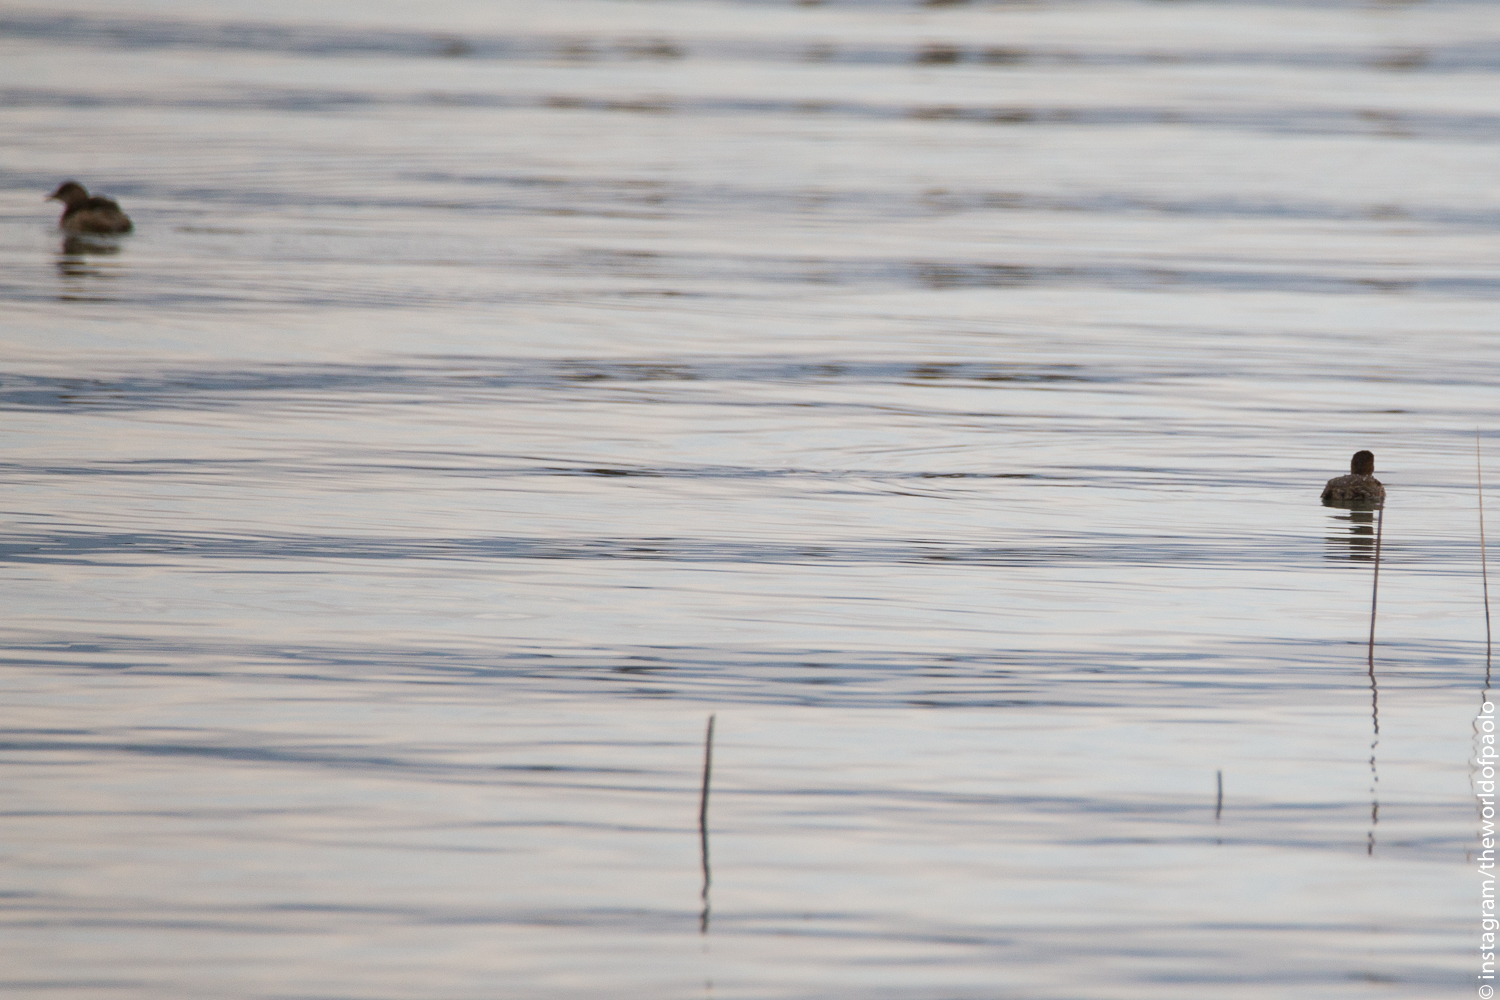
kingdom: Animalia
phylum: Chordata
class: Aves
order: Podicipediformes
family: Podicipedidae
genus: Tachybaptus
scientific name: Tachybaptus ruficollis
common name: Little grebe
